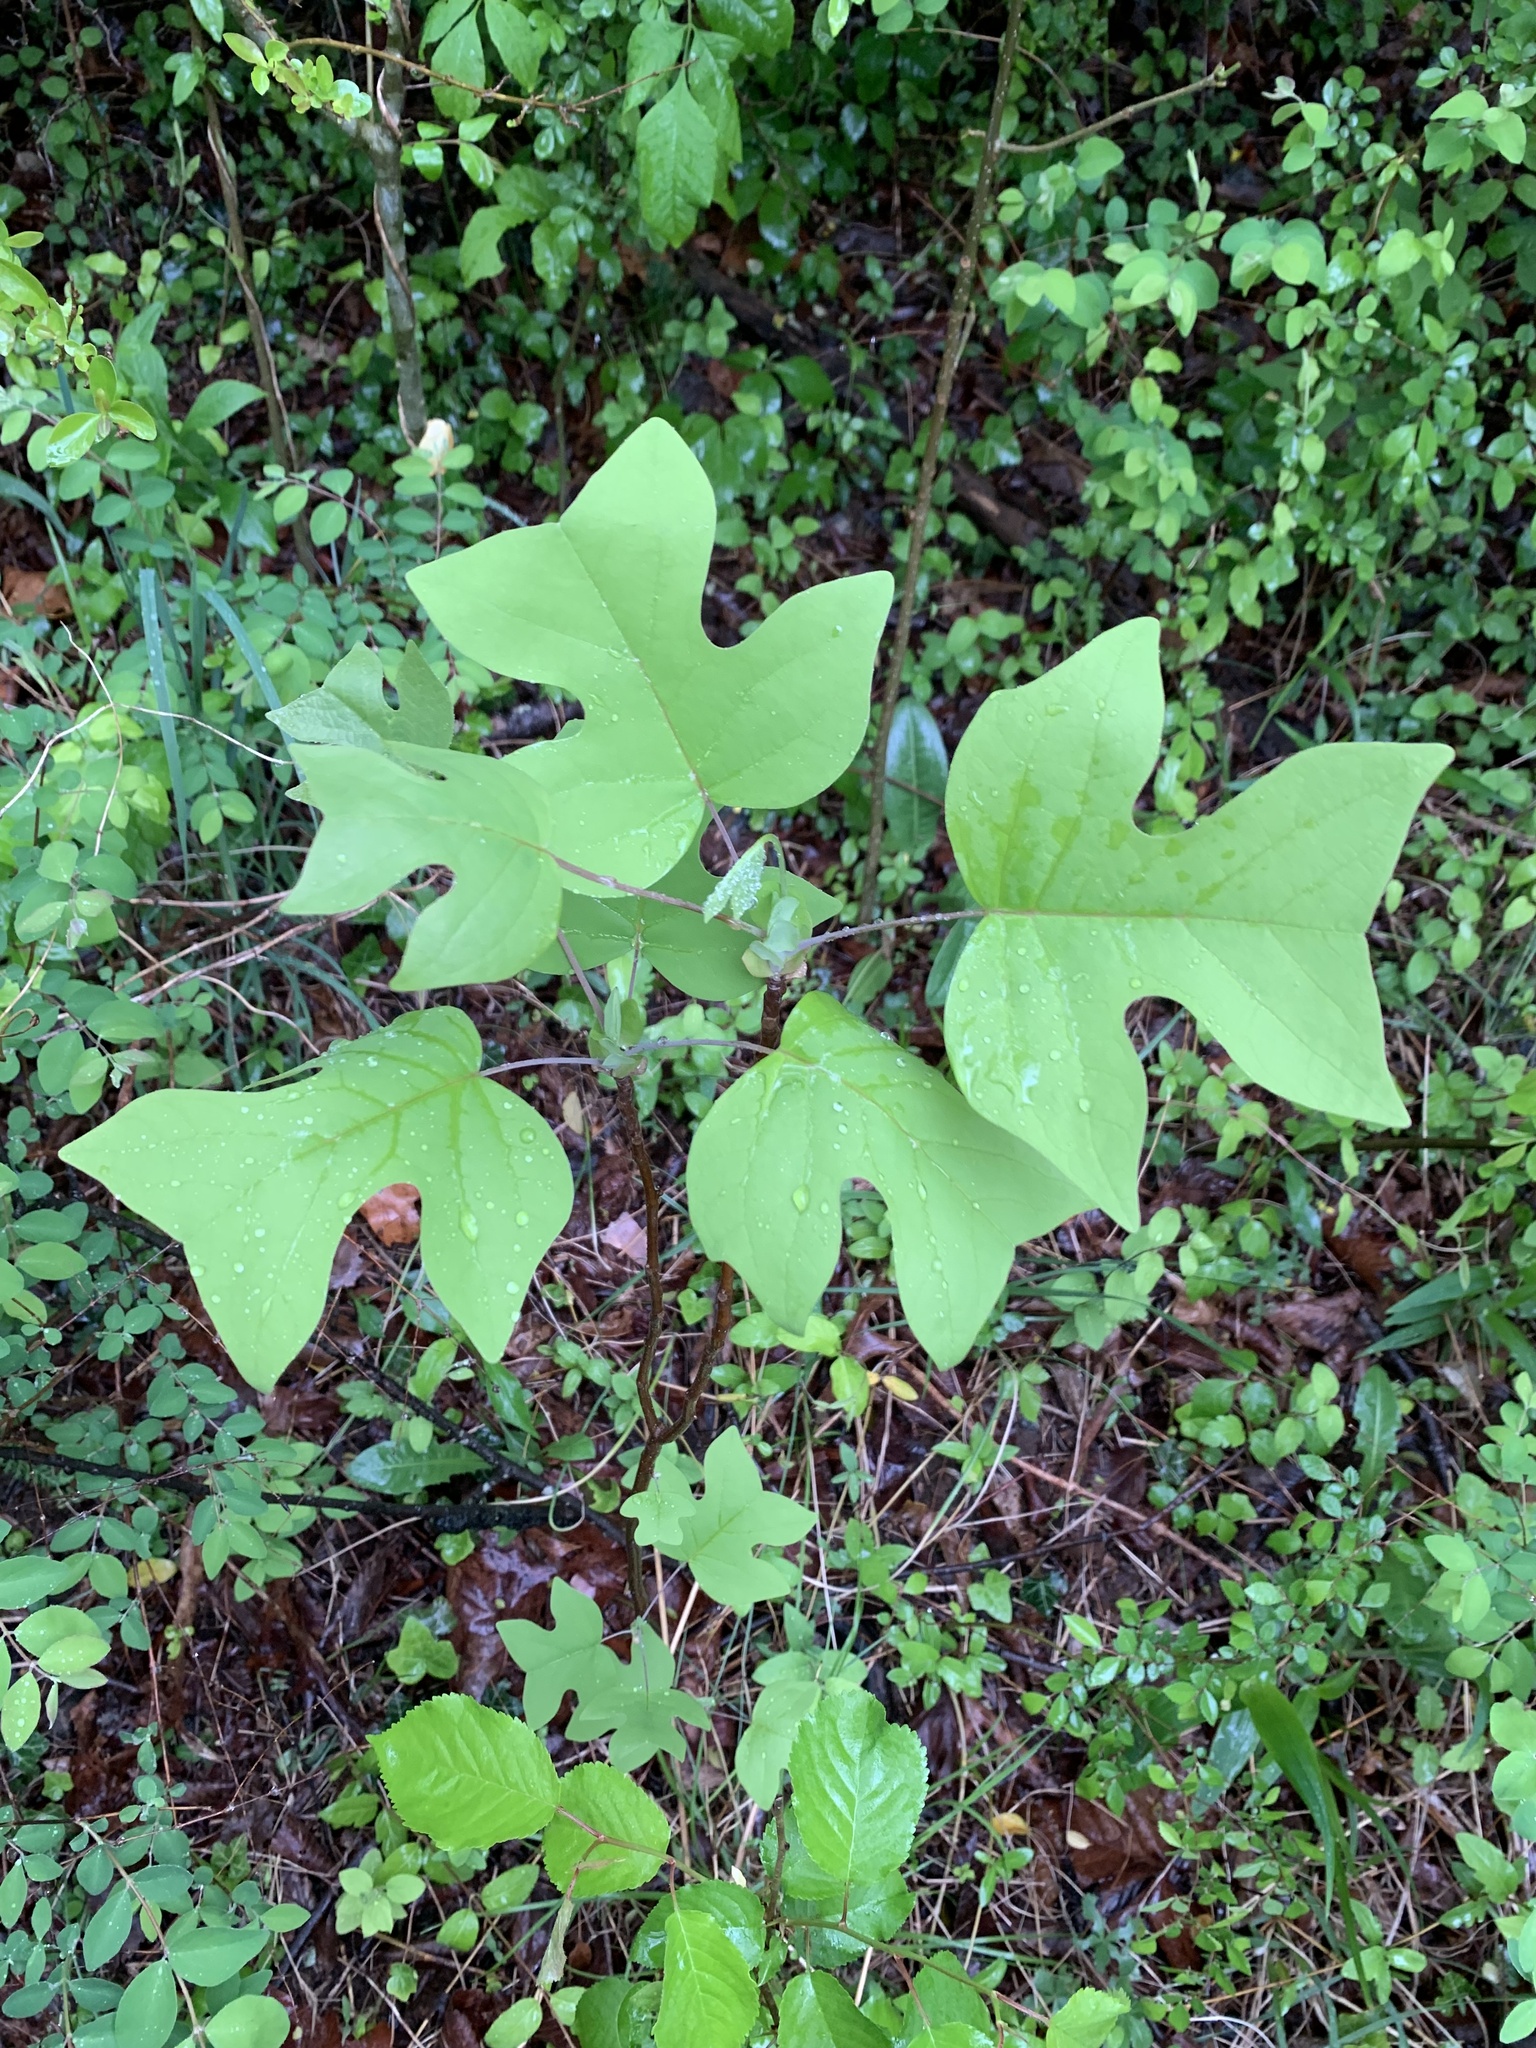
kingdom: Plantae
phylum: Tracheophyta
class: Magnoliopsida
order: Magnoliales
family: Magnoliaceae
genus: Liriodendron
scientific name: Liriodendron tulipifera
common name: Tulip tree
